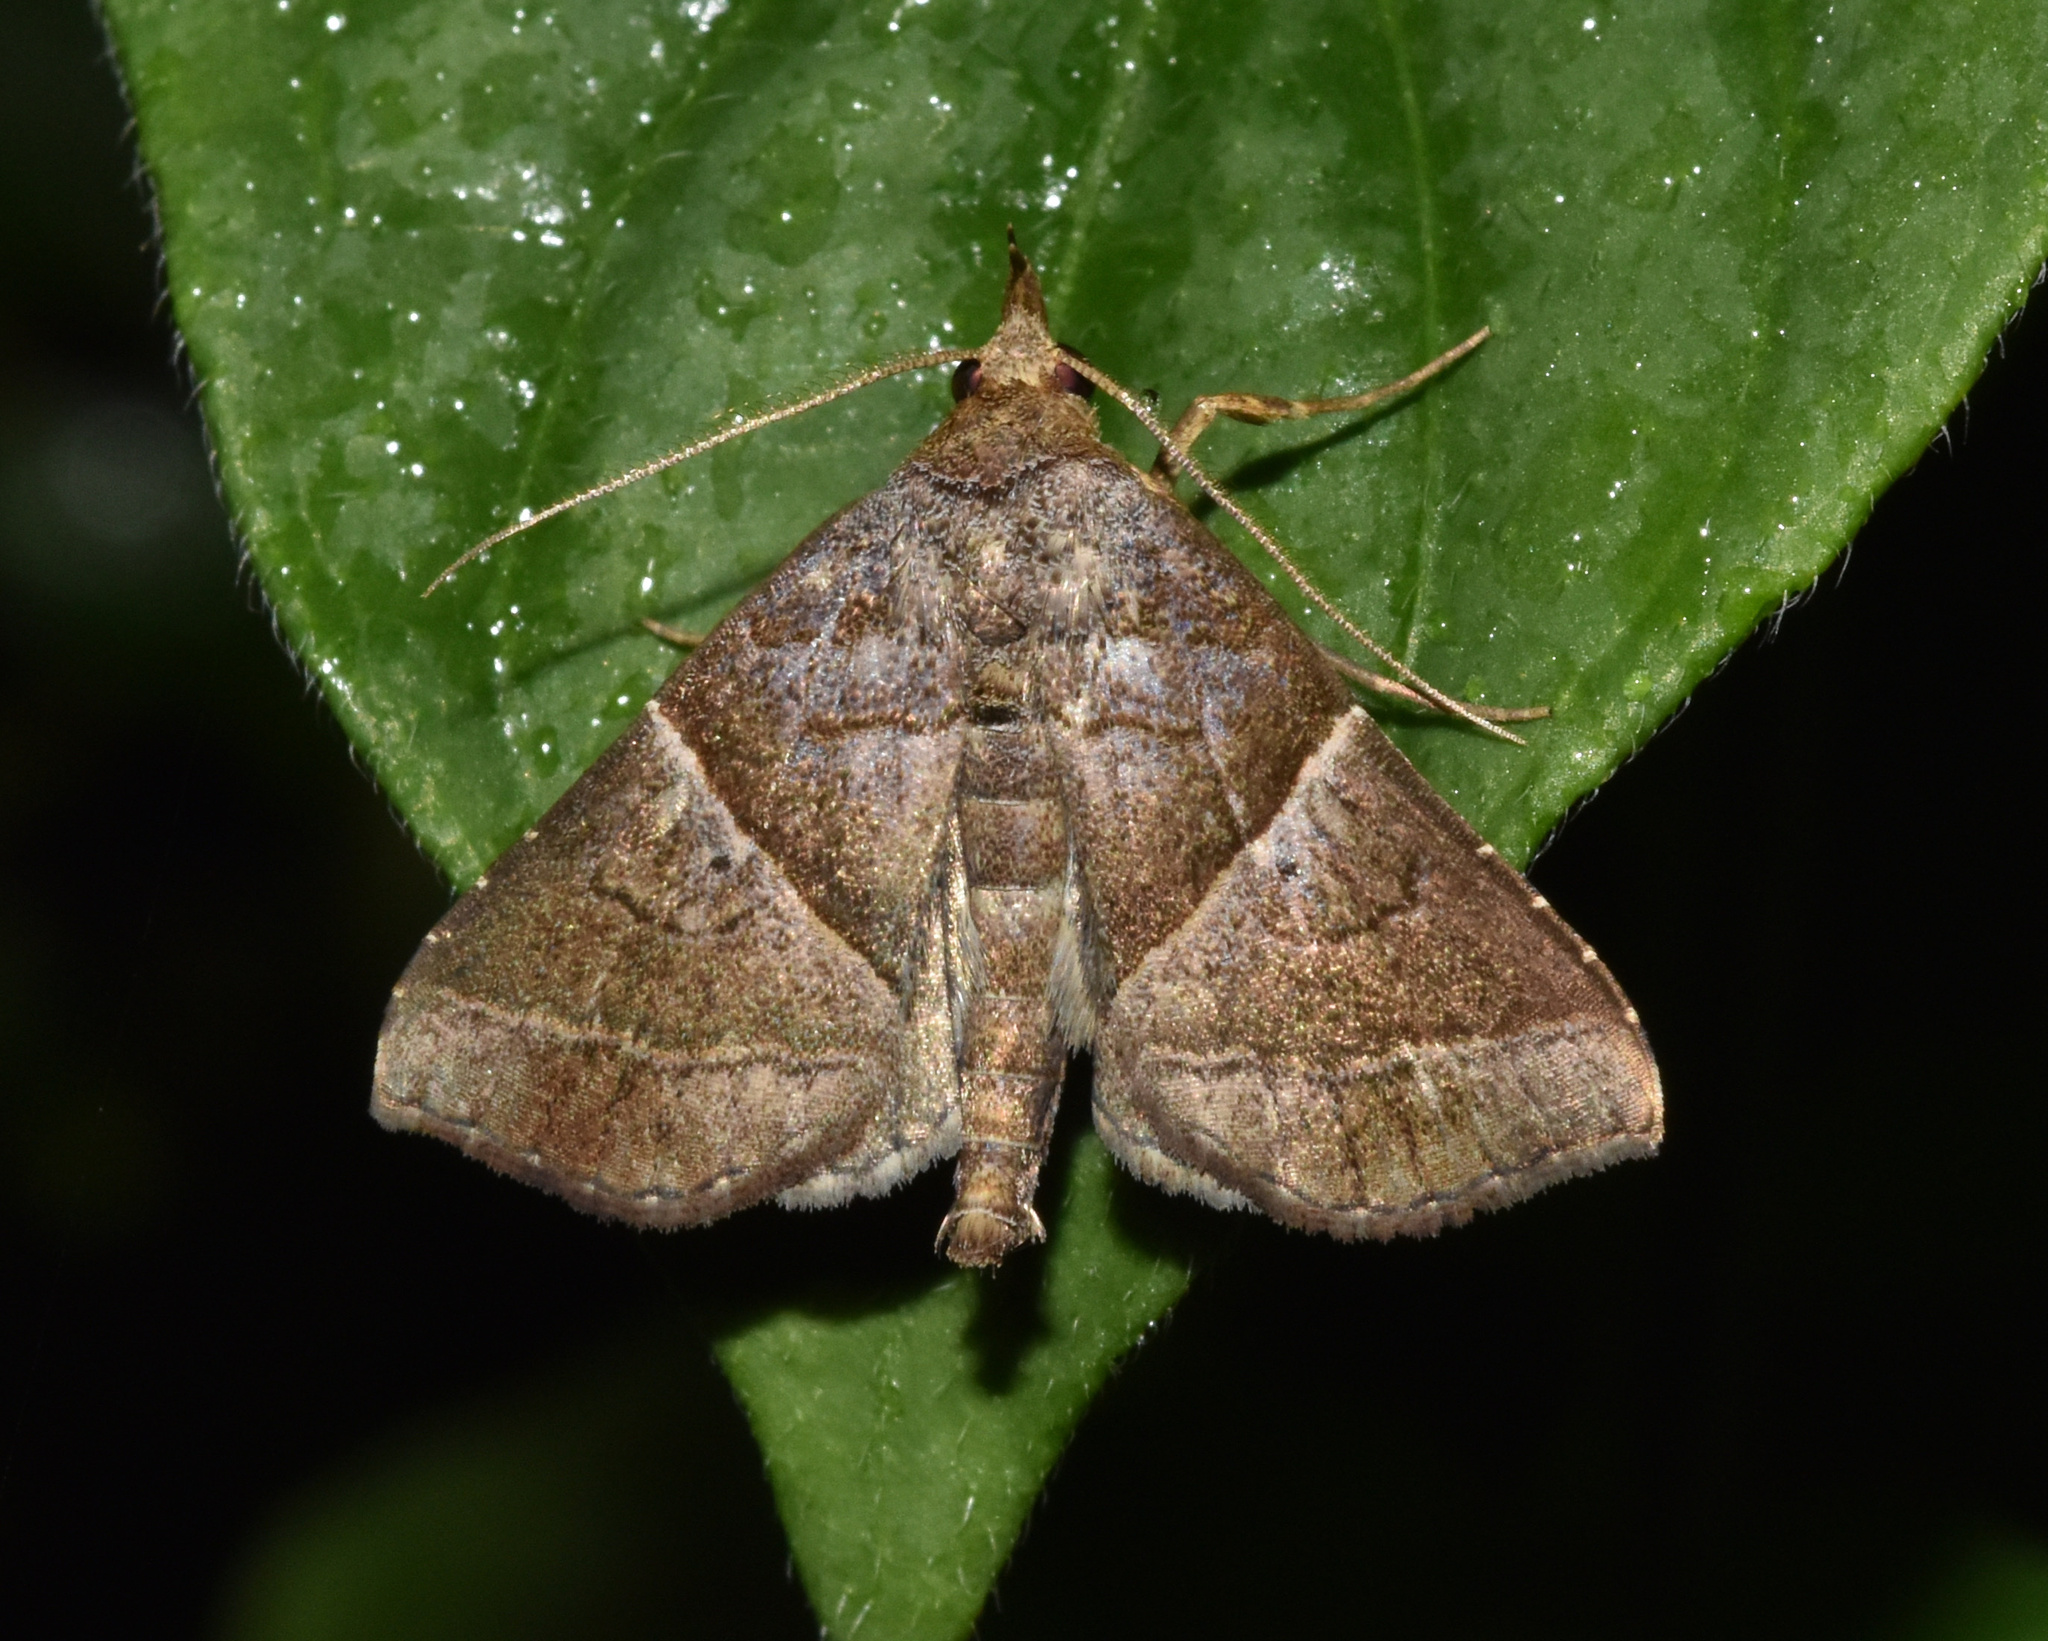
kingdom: Animalia
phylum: Arthropoda
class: Insecta
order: Lepidoptera
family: Erebidae
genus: Radara
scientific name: Radara vacillans
